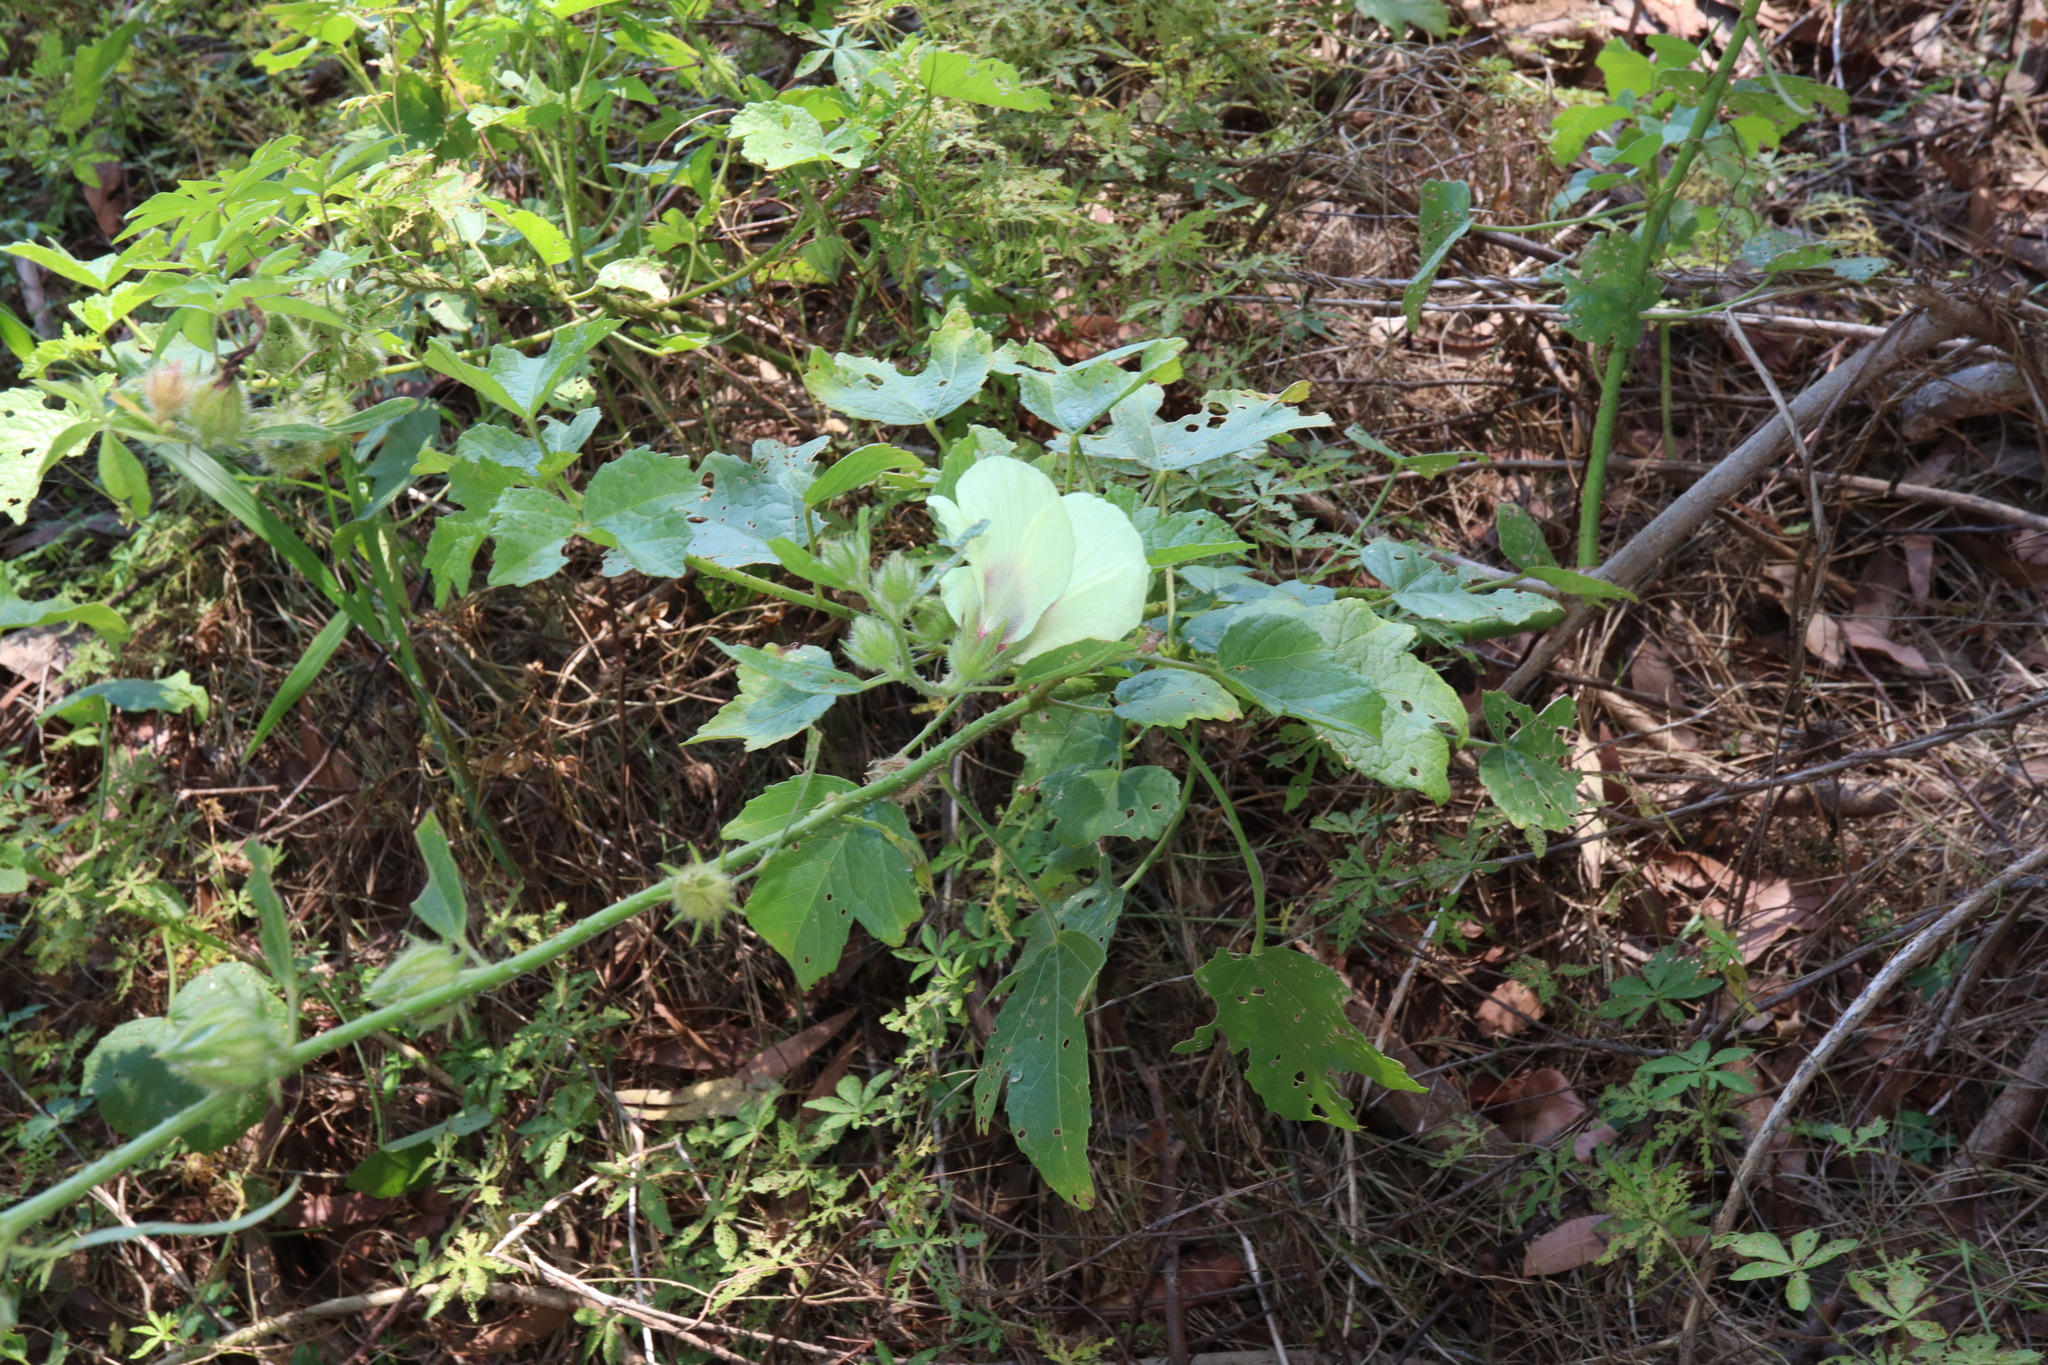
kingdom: Plantae
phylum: Tracheophyta
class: Magnoliopsida
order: Malvales
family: Malvaceae
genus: Hibiscus
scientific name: Hibiscus diversifolius
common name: Cape hibiscus
